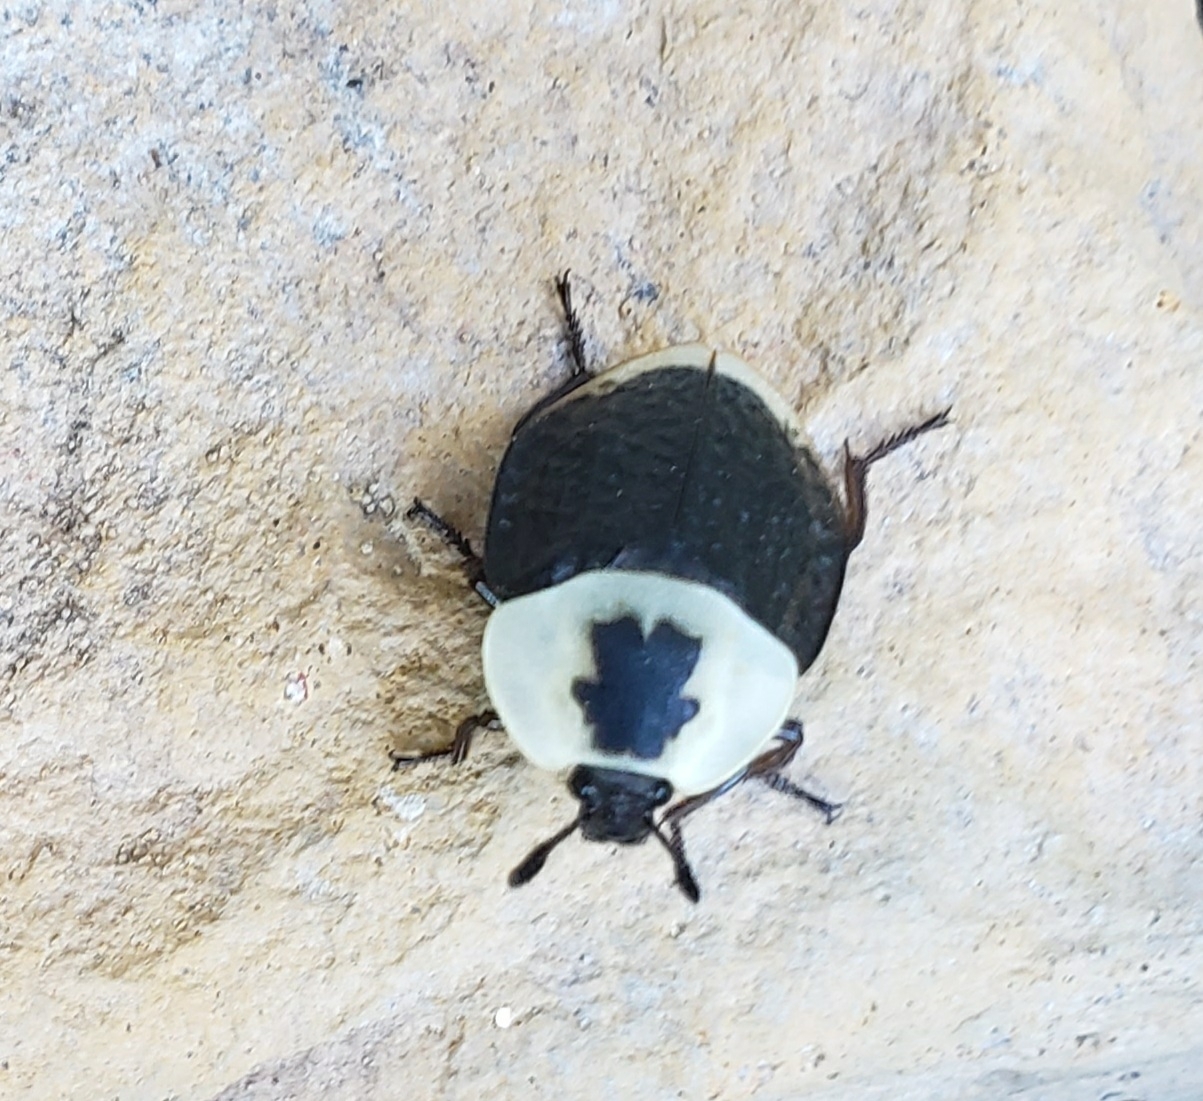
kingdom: Animalia
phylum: Arthropoda
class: Insecta
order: Coleoptera
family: Staphylinidae
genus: Necrophila
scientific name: Necrophila americana
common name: American carrion beetle
